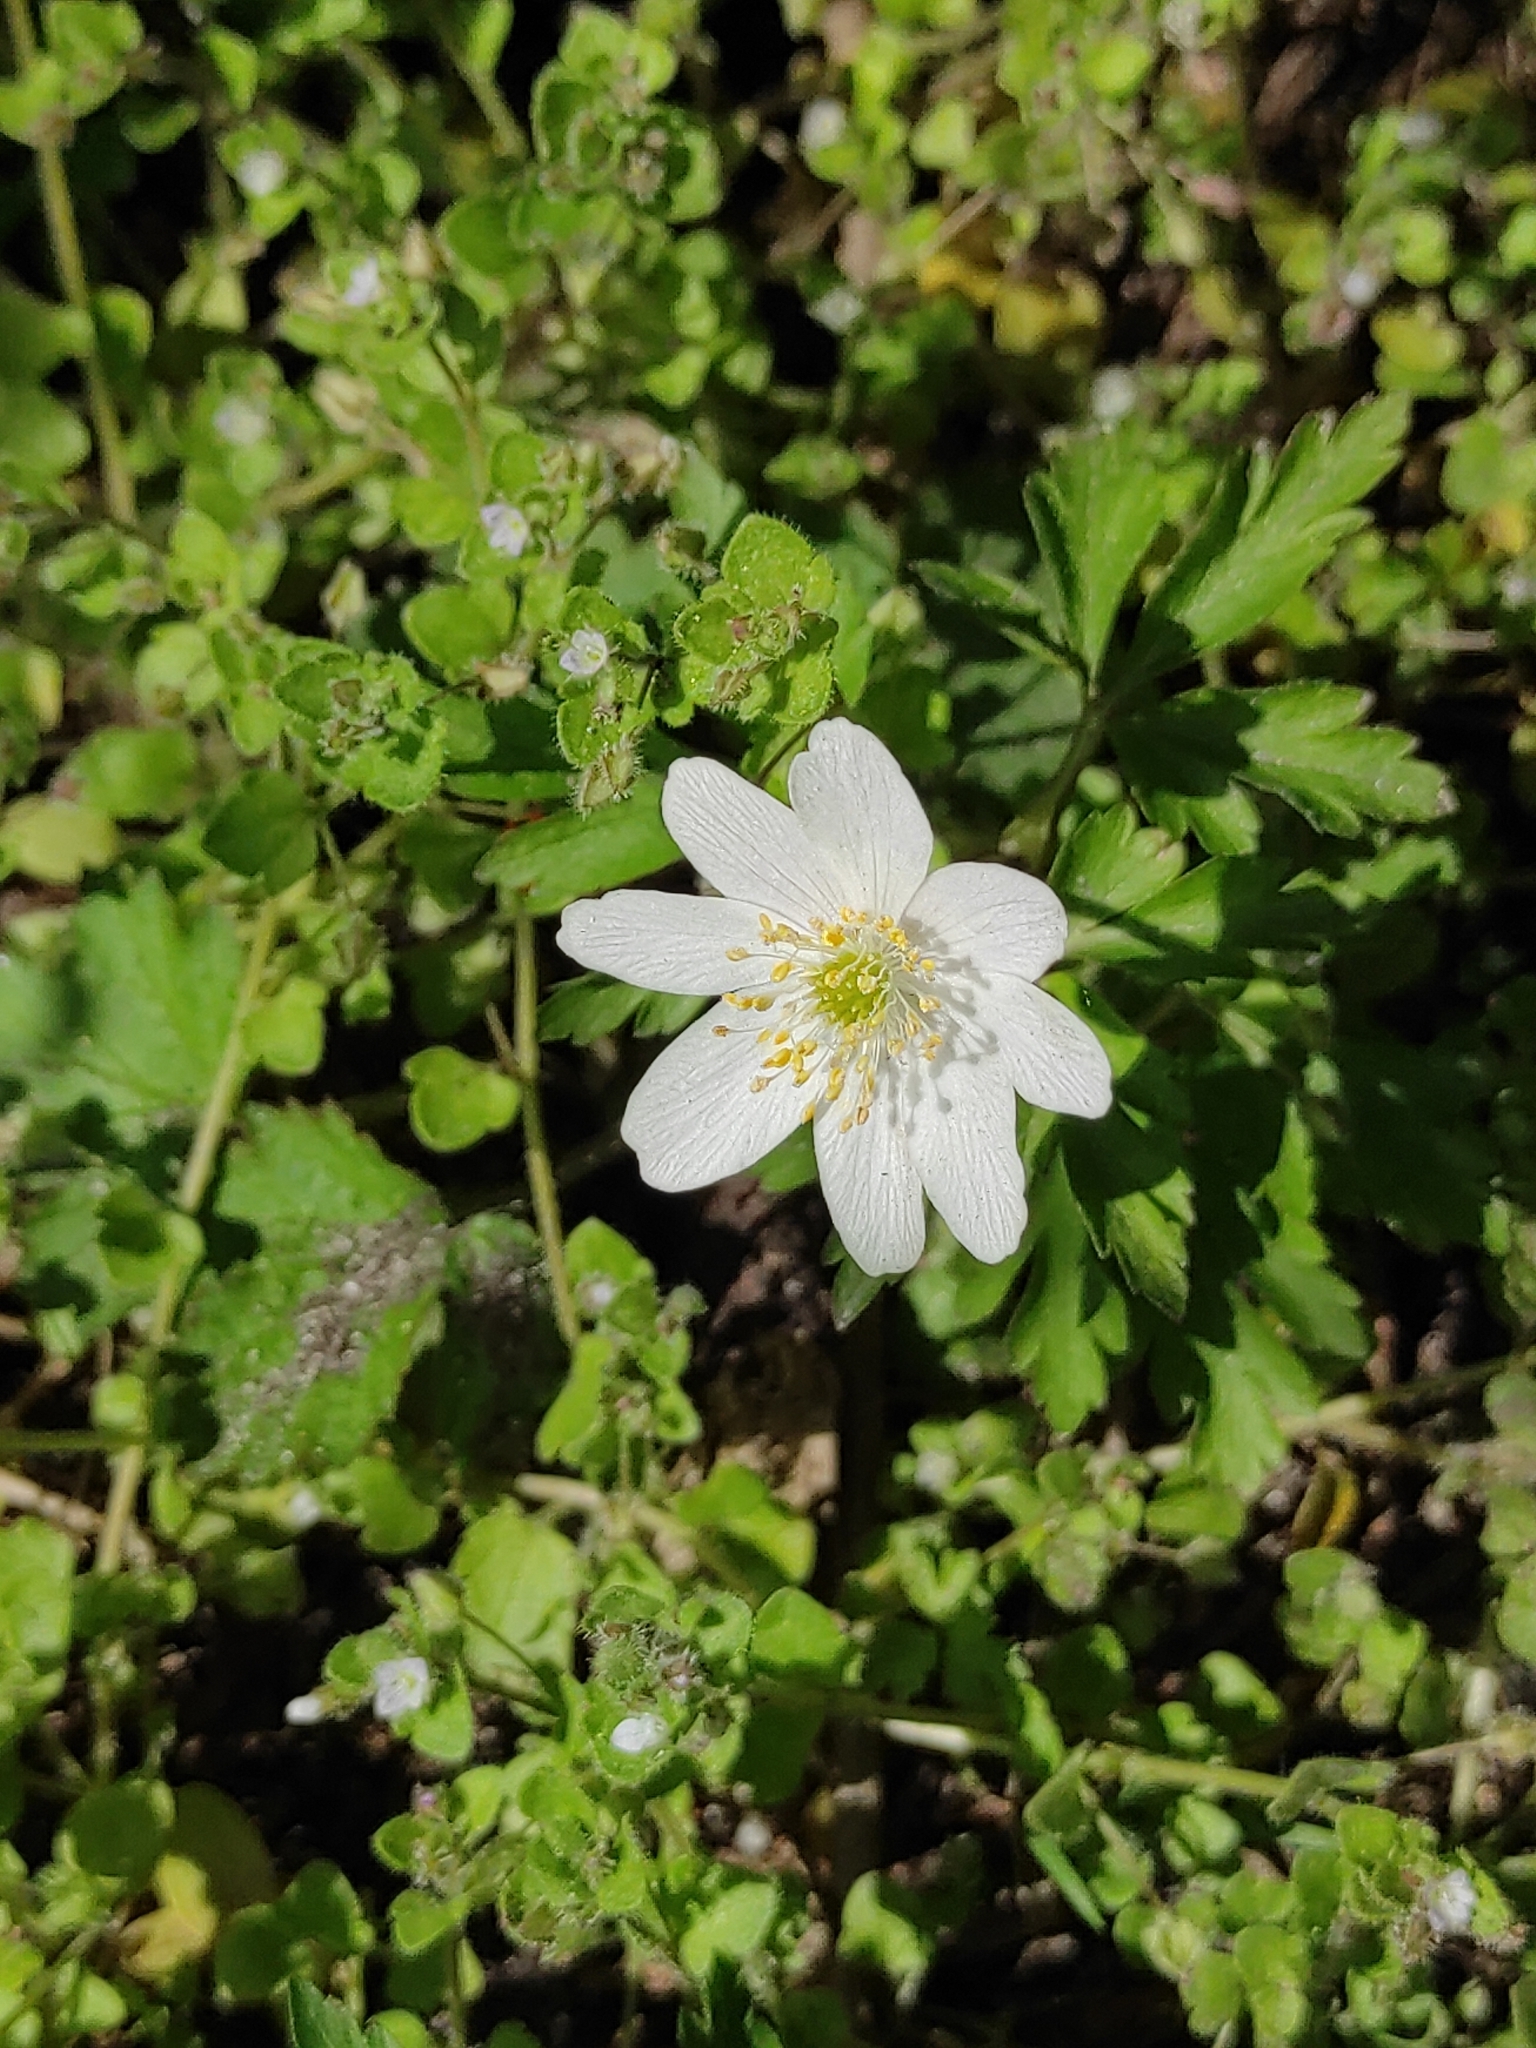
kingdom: Plantae
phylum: Tracheophyta
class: Magnoliopsida
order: Ranunculales
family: Ranunculaceae
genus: Anemone
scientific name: Anemone nemorosa
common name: Wood anemone
